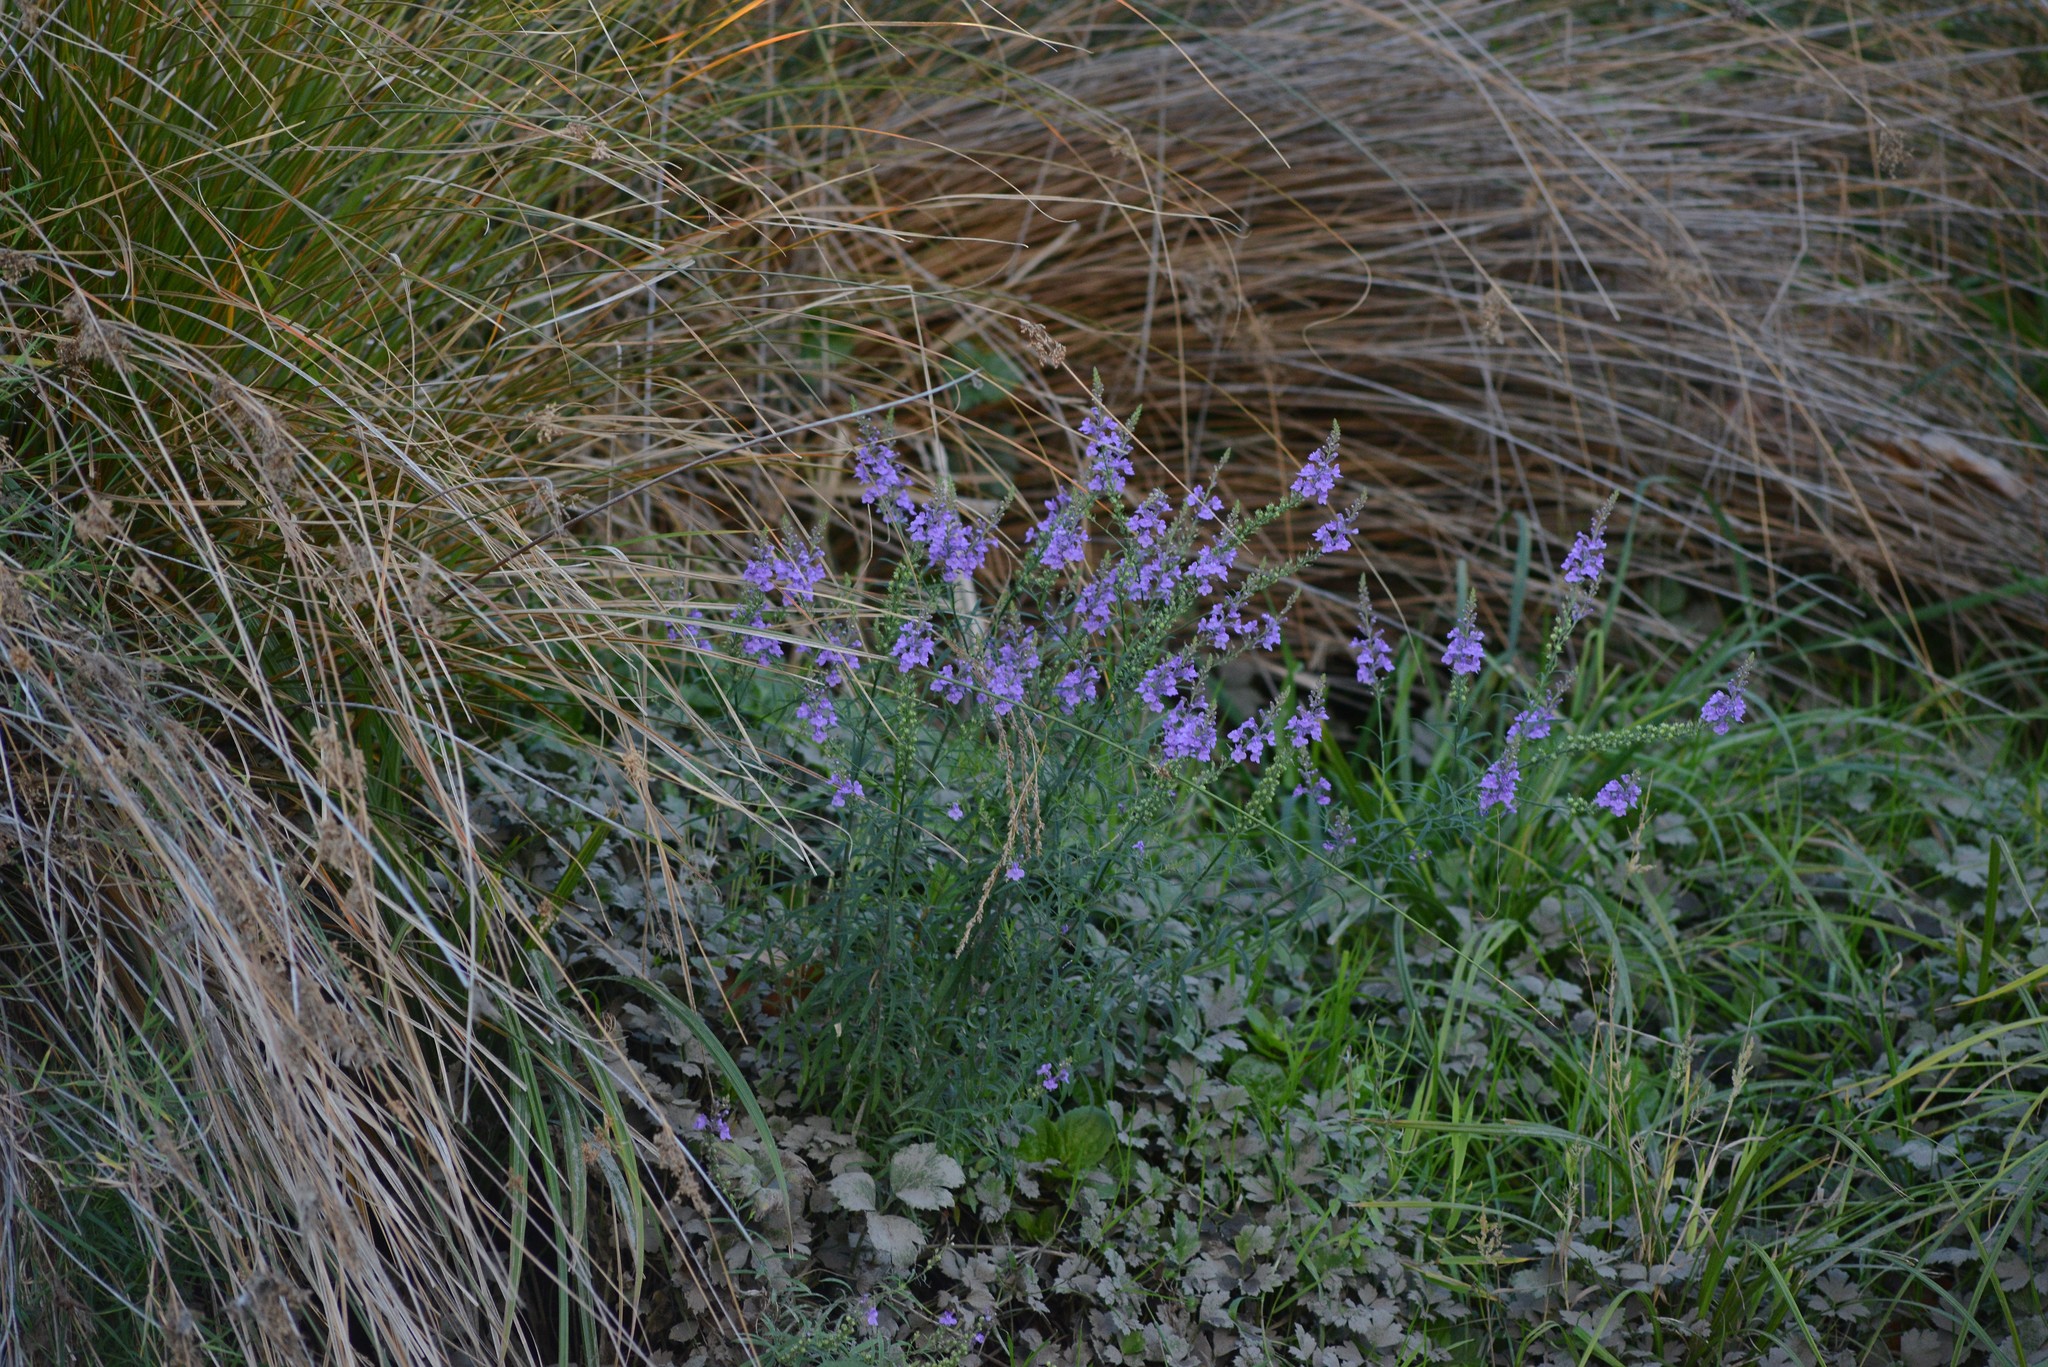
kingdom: Plantae
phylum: Tracheophyta
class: Magnoliopsida
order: Lamiales
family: Plantaginaceae
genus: Linaria
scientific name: Linaria purpurea
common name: Purple toadflax
